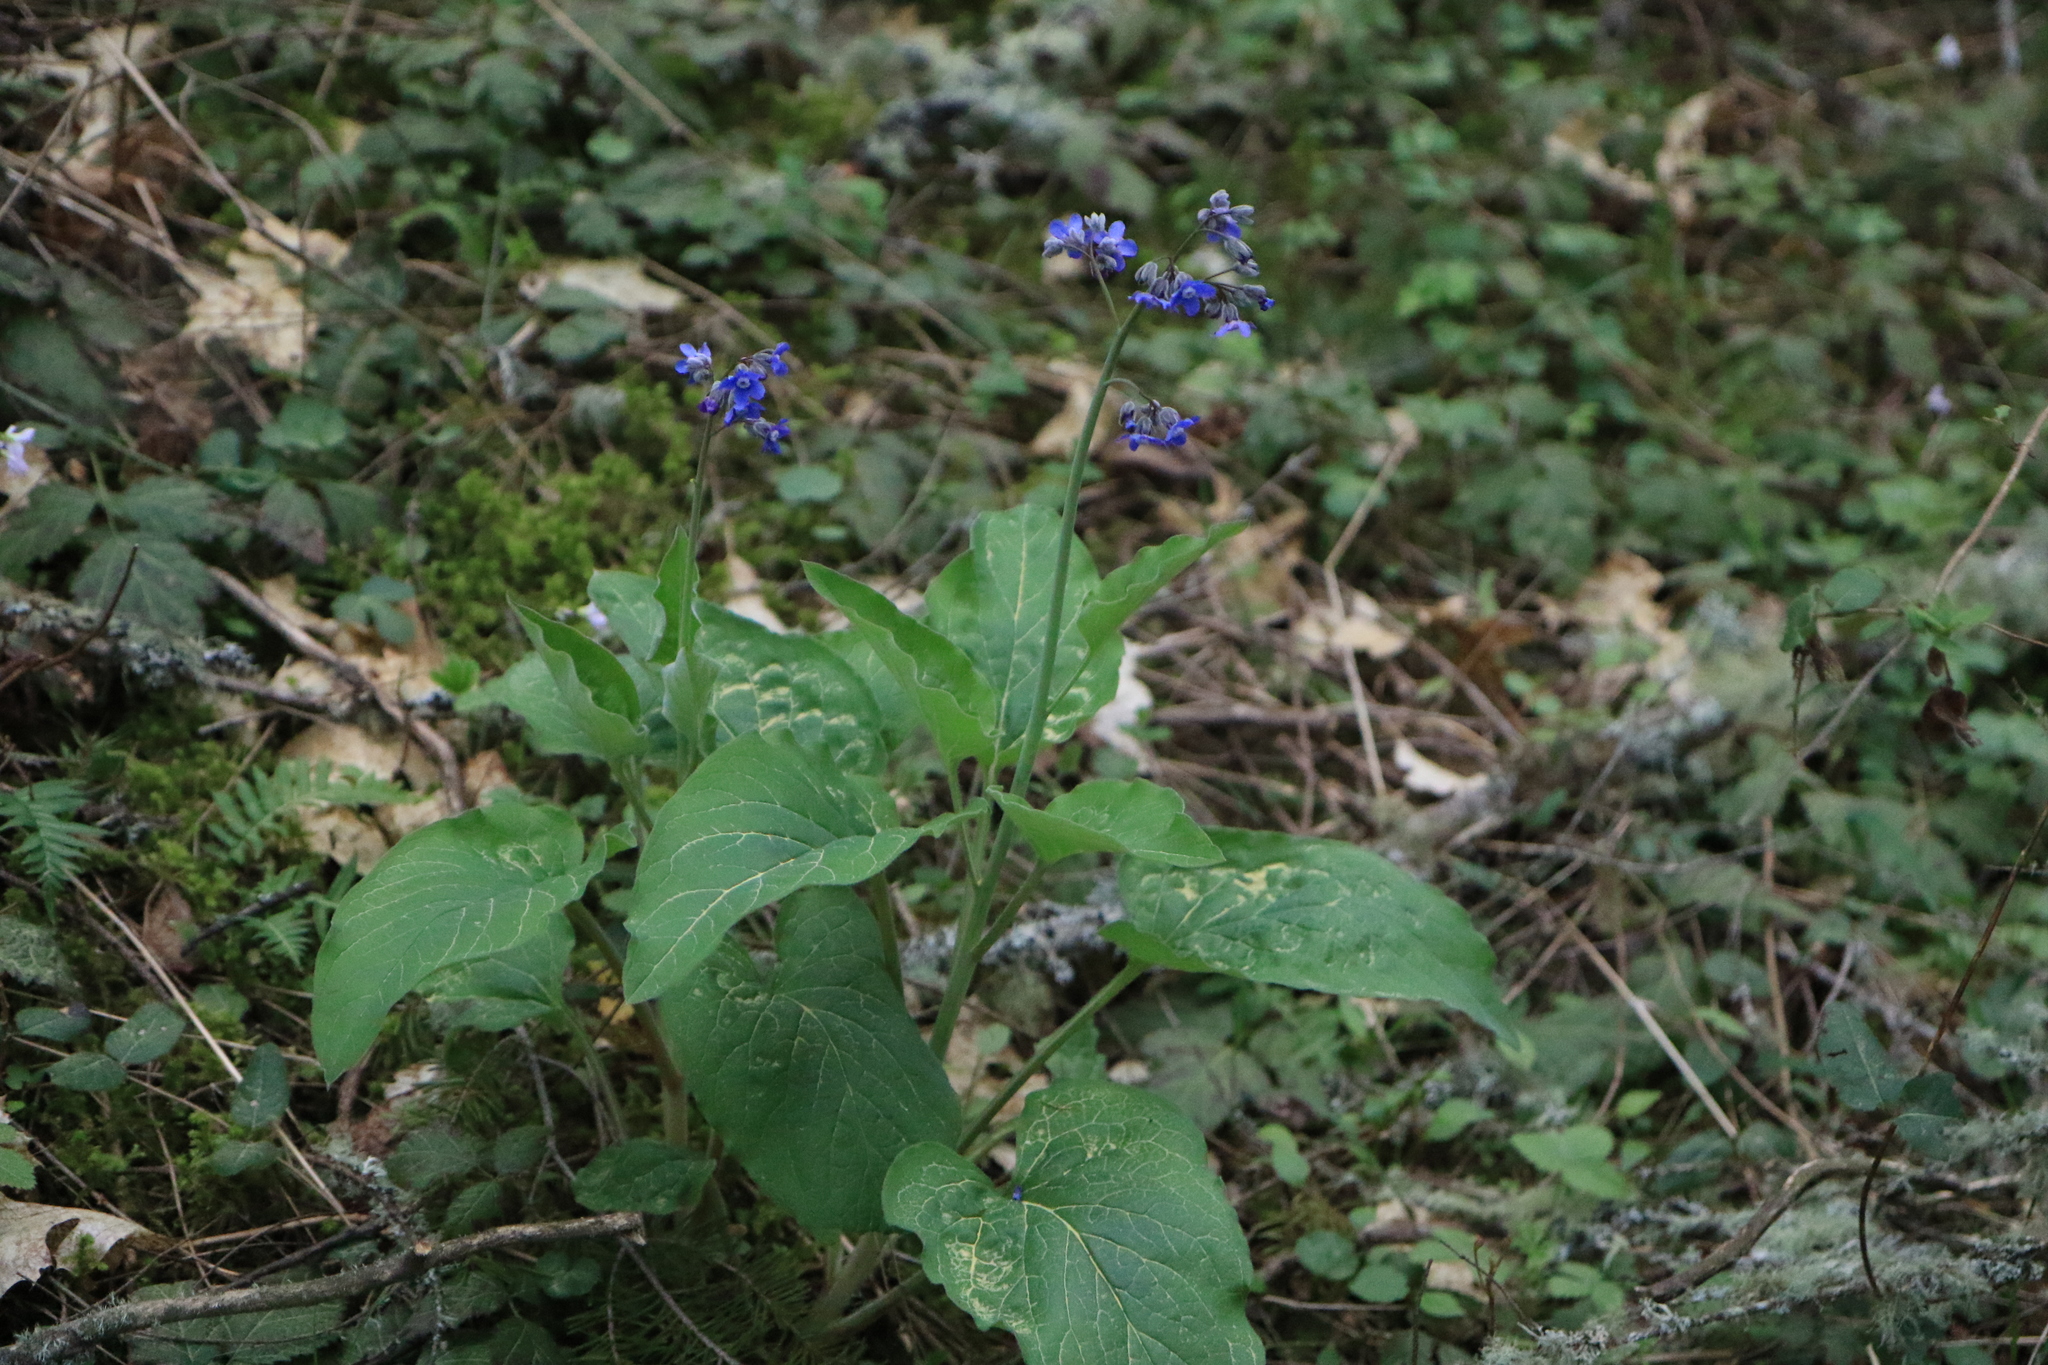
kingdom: Plantae
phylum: Tracheophyta
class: Magnoliopsida
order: Boraginales
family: Boraginaceae
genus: Adelinia
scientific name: Adelinia grande
